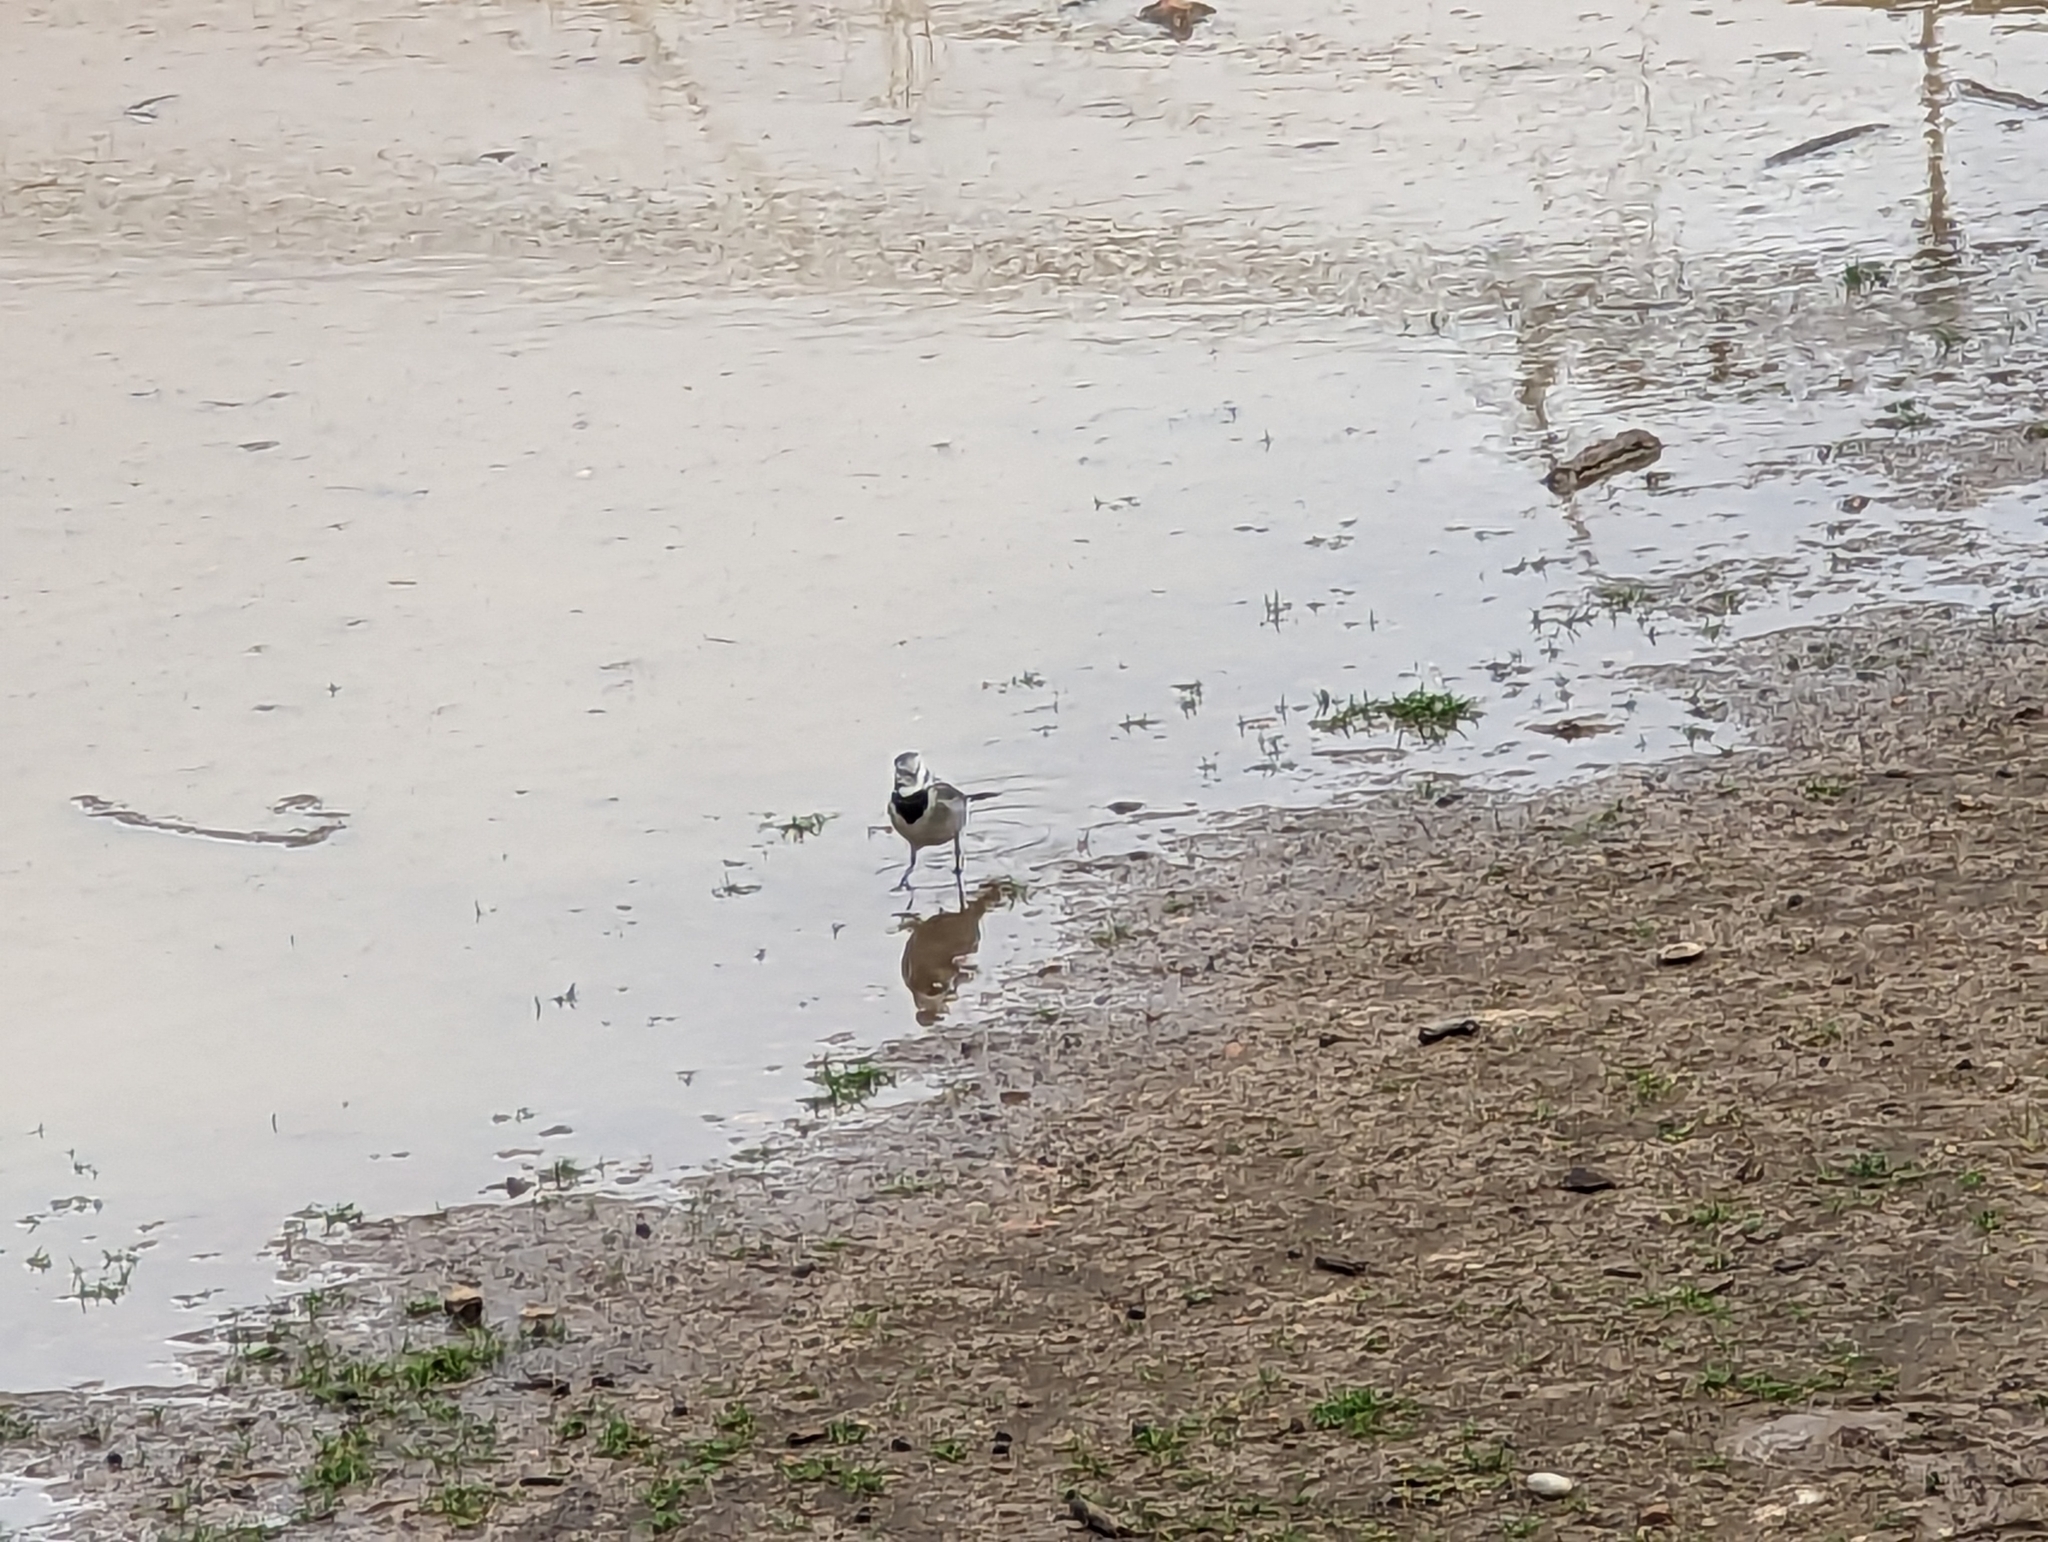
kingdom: Animalia
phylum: Chordata
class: Aves
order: Passeriformes
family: Motacillidae
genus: Motacilla
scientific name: Motacilla alba
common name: White wagtail
